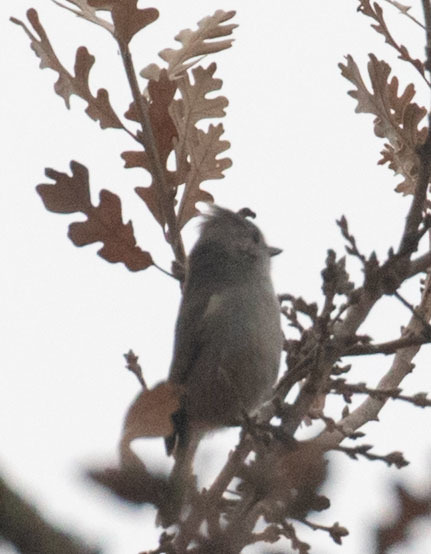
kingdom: Animalia
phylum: Chordata
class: Aves
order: Passeriformes
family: Paridae
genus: Baeolophus
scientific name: Baeolophus inornatus
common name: Oak titmouse
